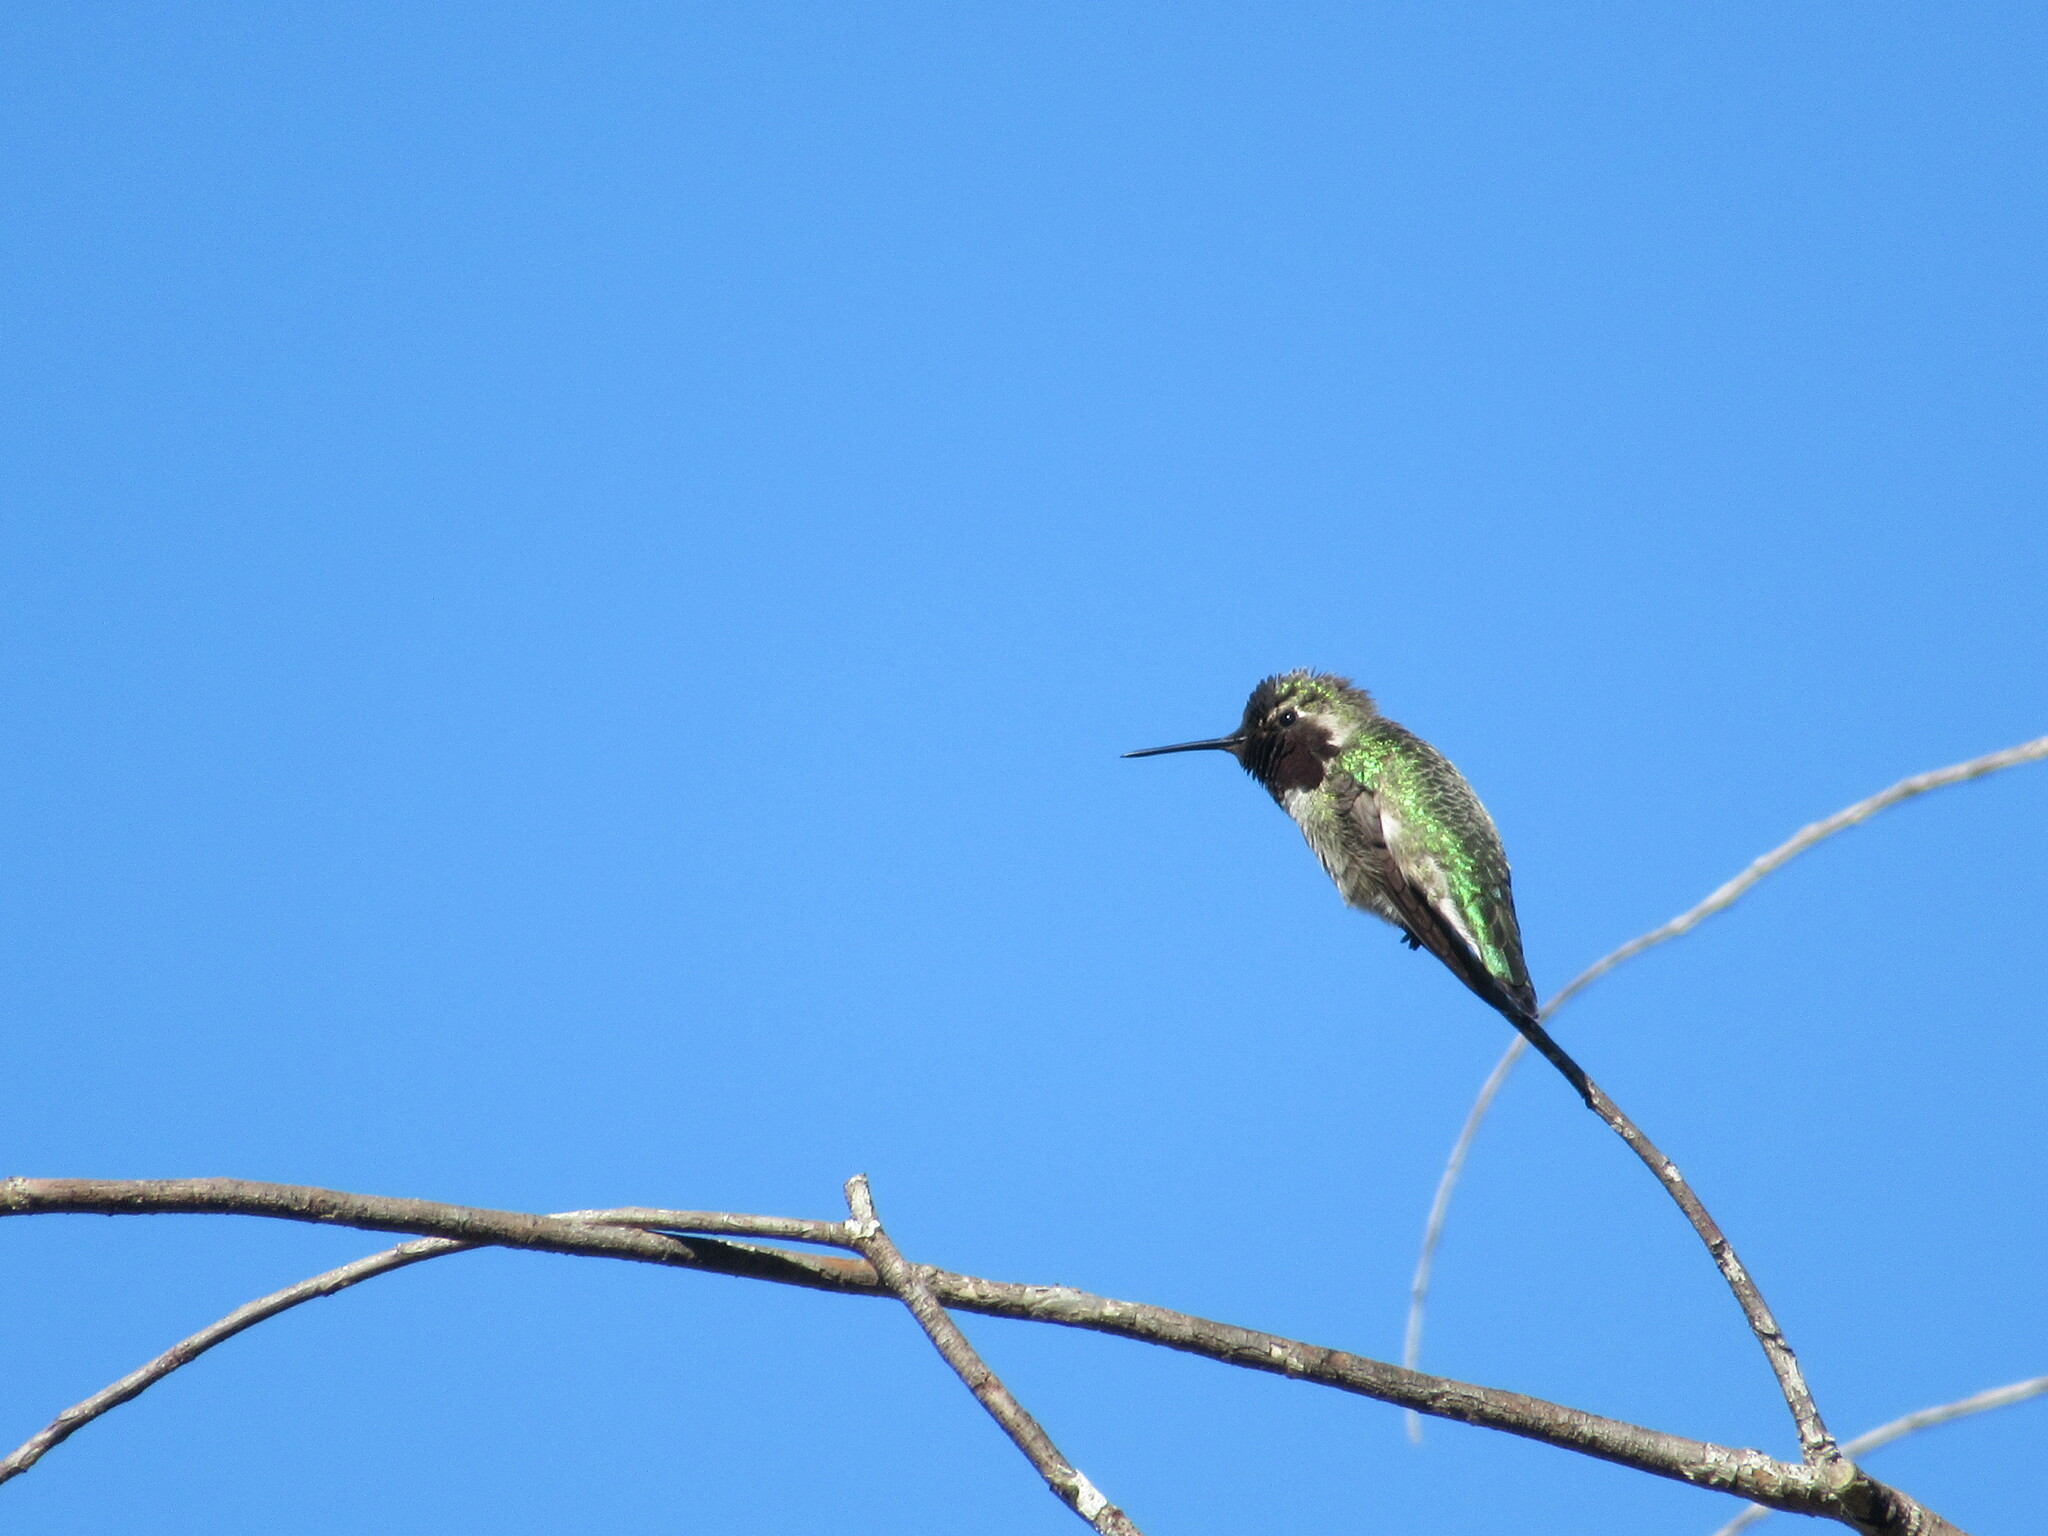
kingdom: Animalia
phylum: Chordata
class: Aves
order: Apodiformes
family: Trochilidae
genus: Calypte
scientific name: Calypte anna
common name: Anna's hummingbird
